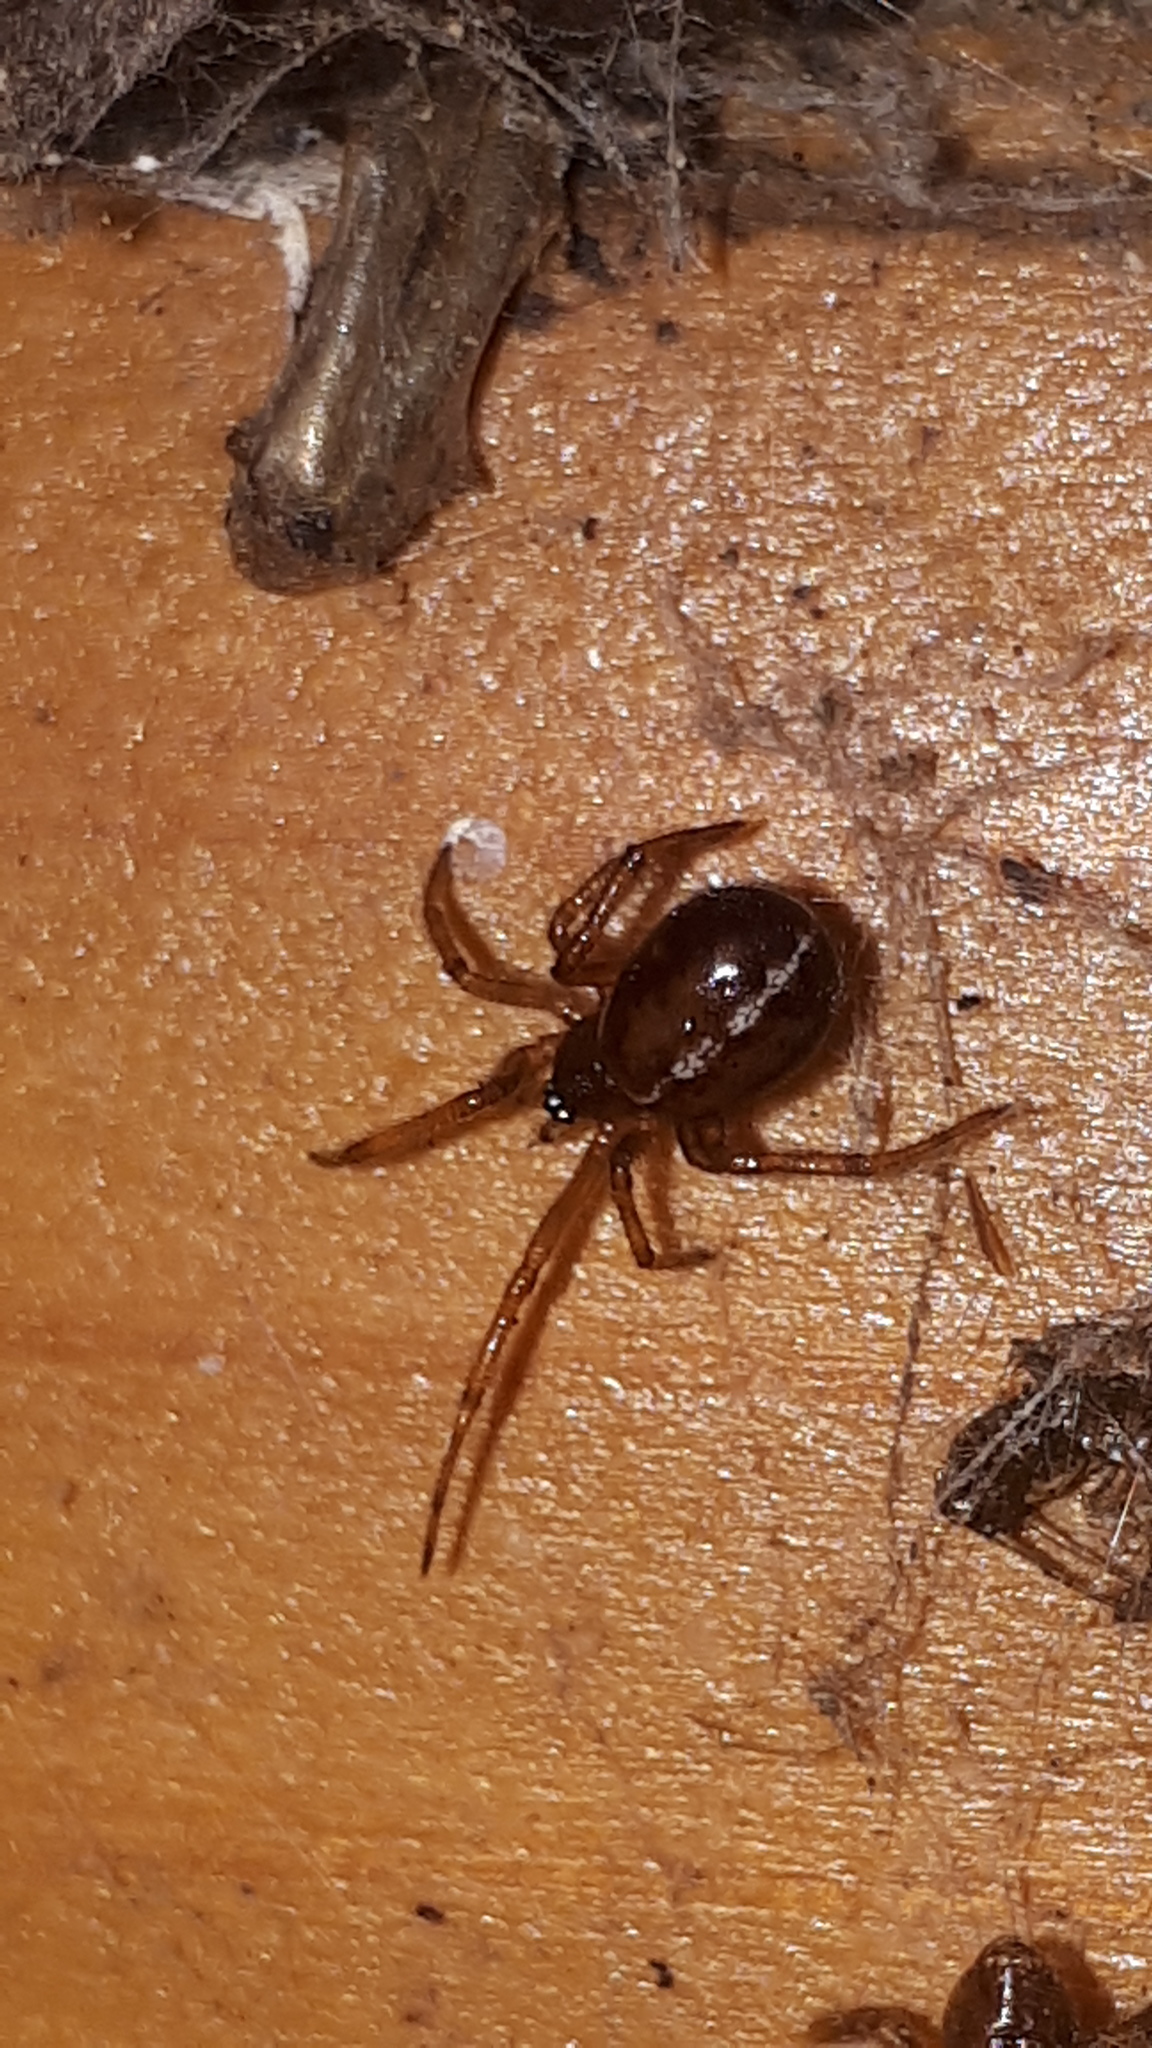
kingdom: Animalia
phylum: Arthropoda
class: Arachnida
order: Araneae
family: Theridiidae
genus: Steatoda
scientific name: Steatoda bipunctata
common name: False widow
